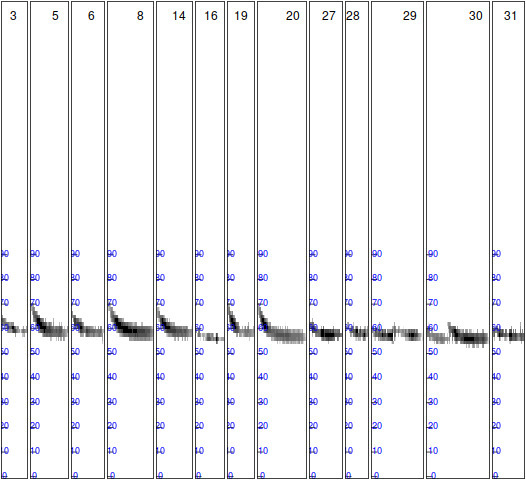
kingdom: Animalia
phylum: Chordata
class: Mammalia
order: Chiroptera
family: Vespertilionidae
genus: Pipistrellus
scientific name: Pipistrellus pygmaeus
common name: Soprano pipistrelle
